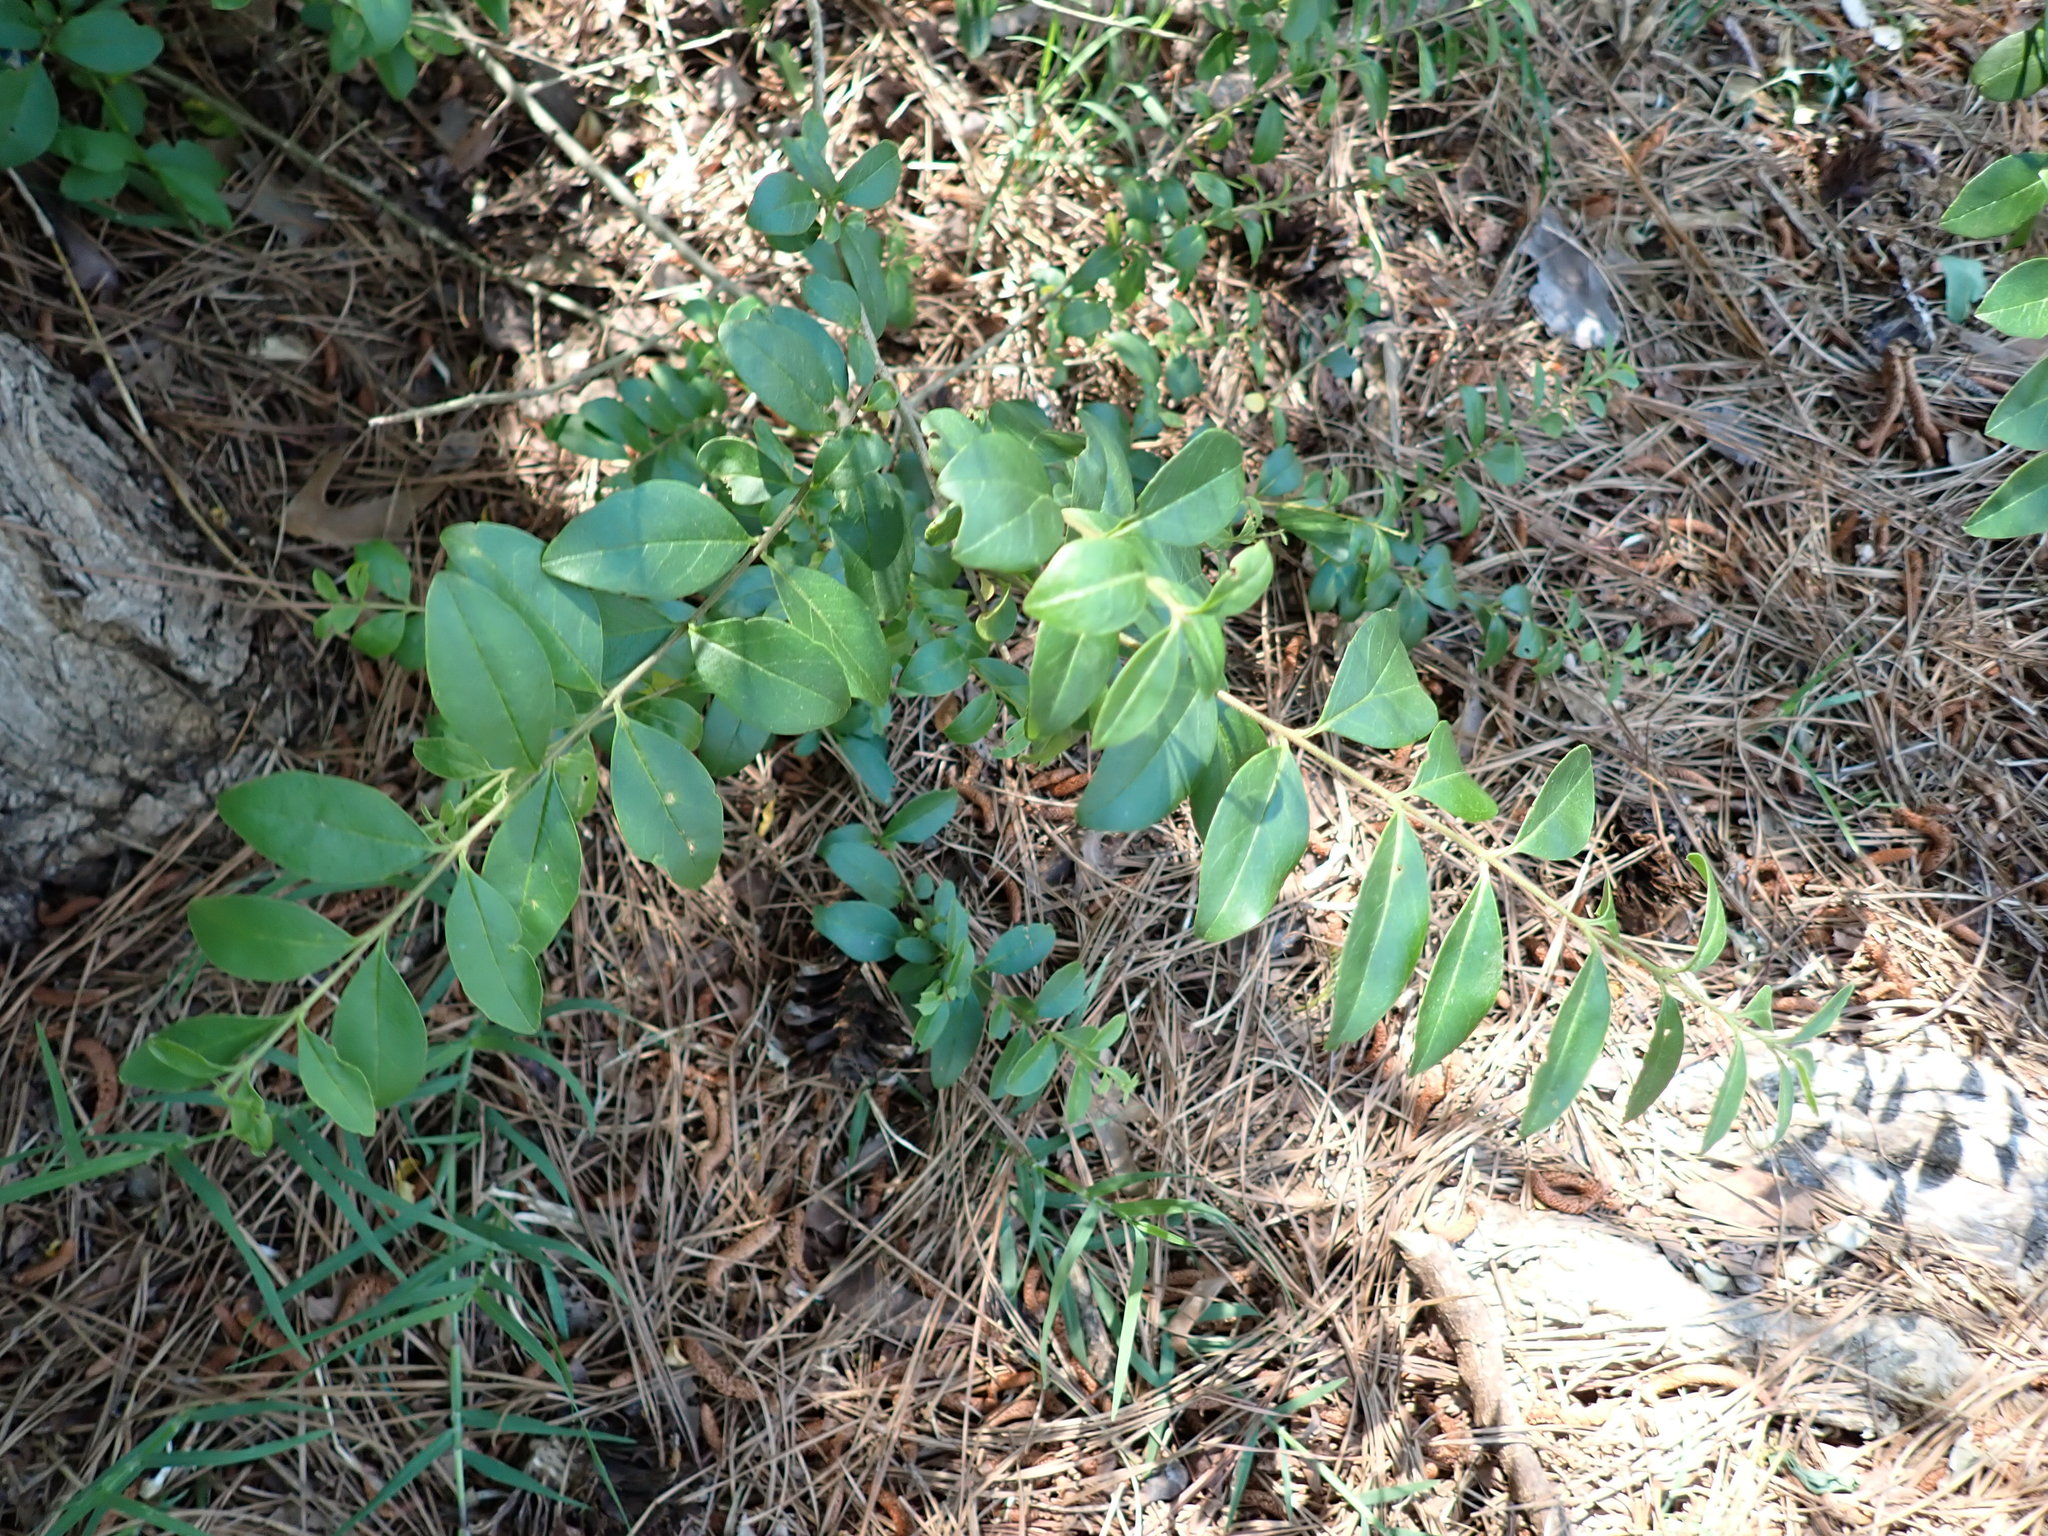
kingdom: Plantae
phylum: Tracheophyta
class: Magnoliopsida
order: Lamiales
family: Oleaceae
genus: Ligustrum
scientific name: Ligustrum sinense
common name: Chinese privet
